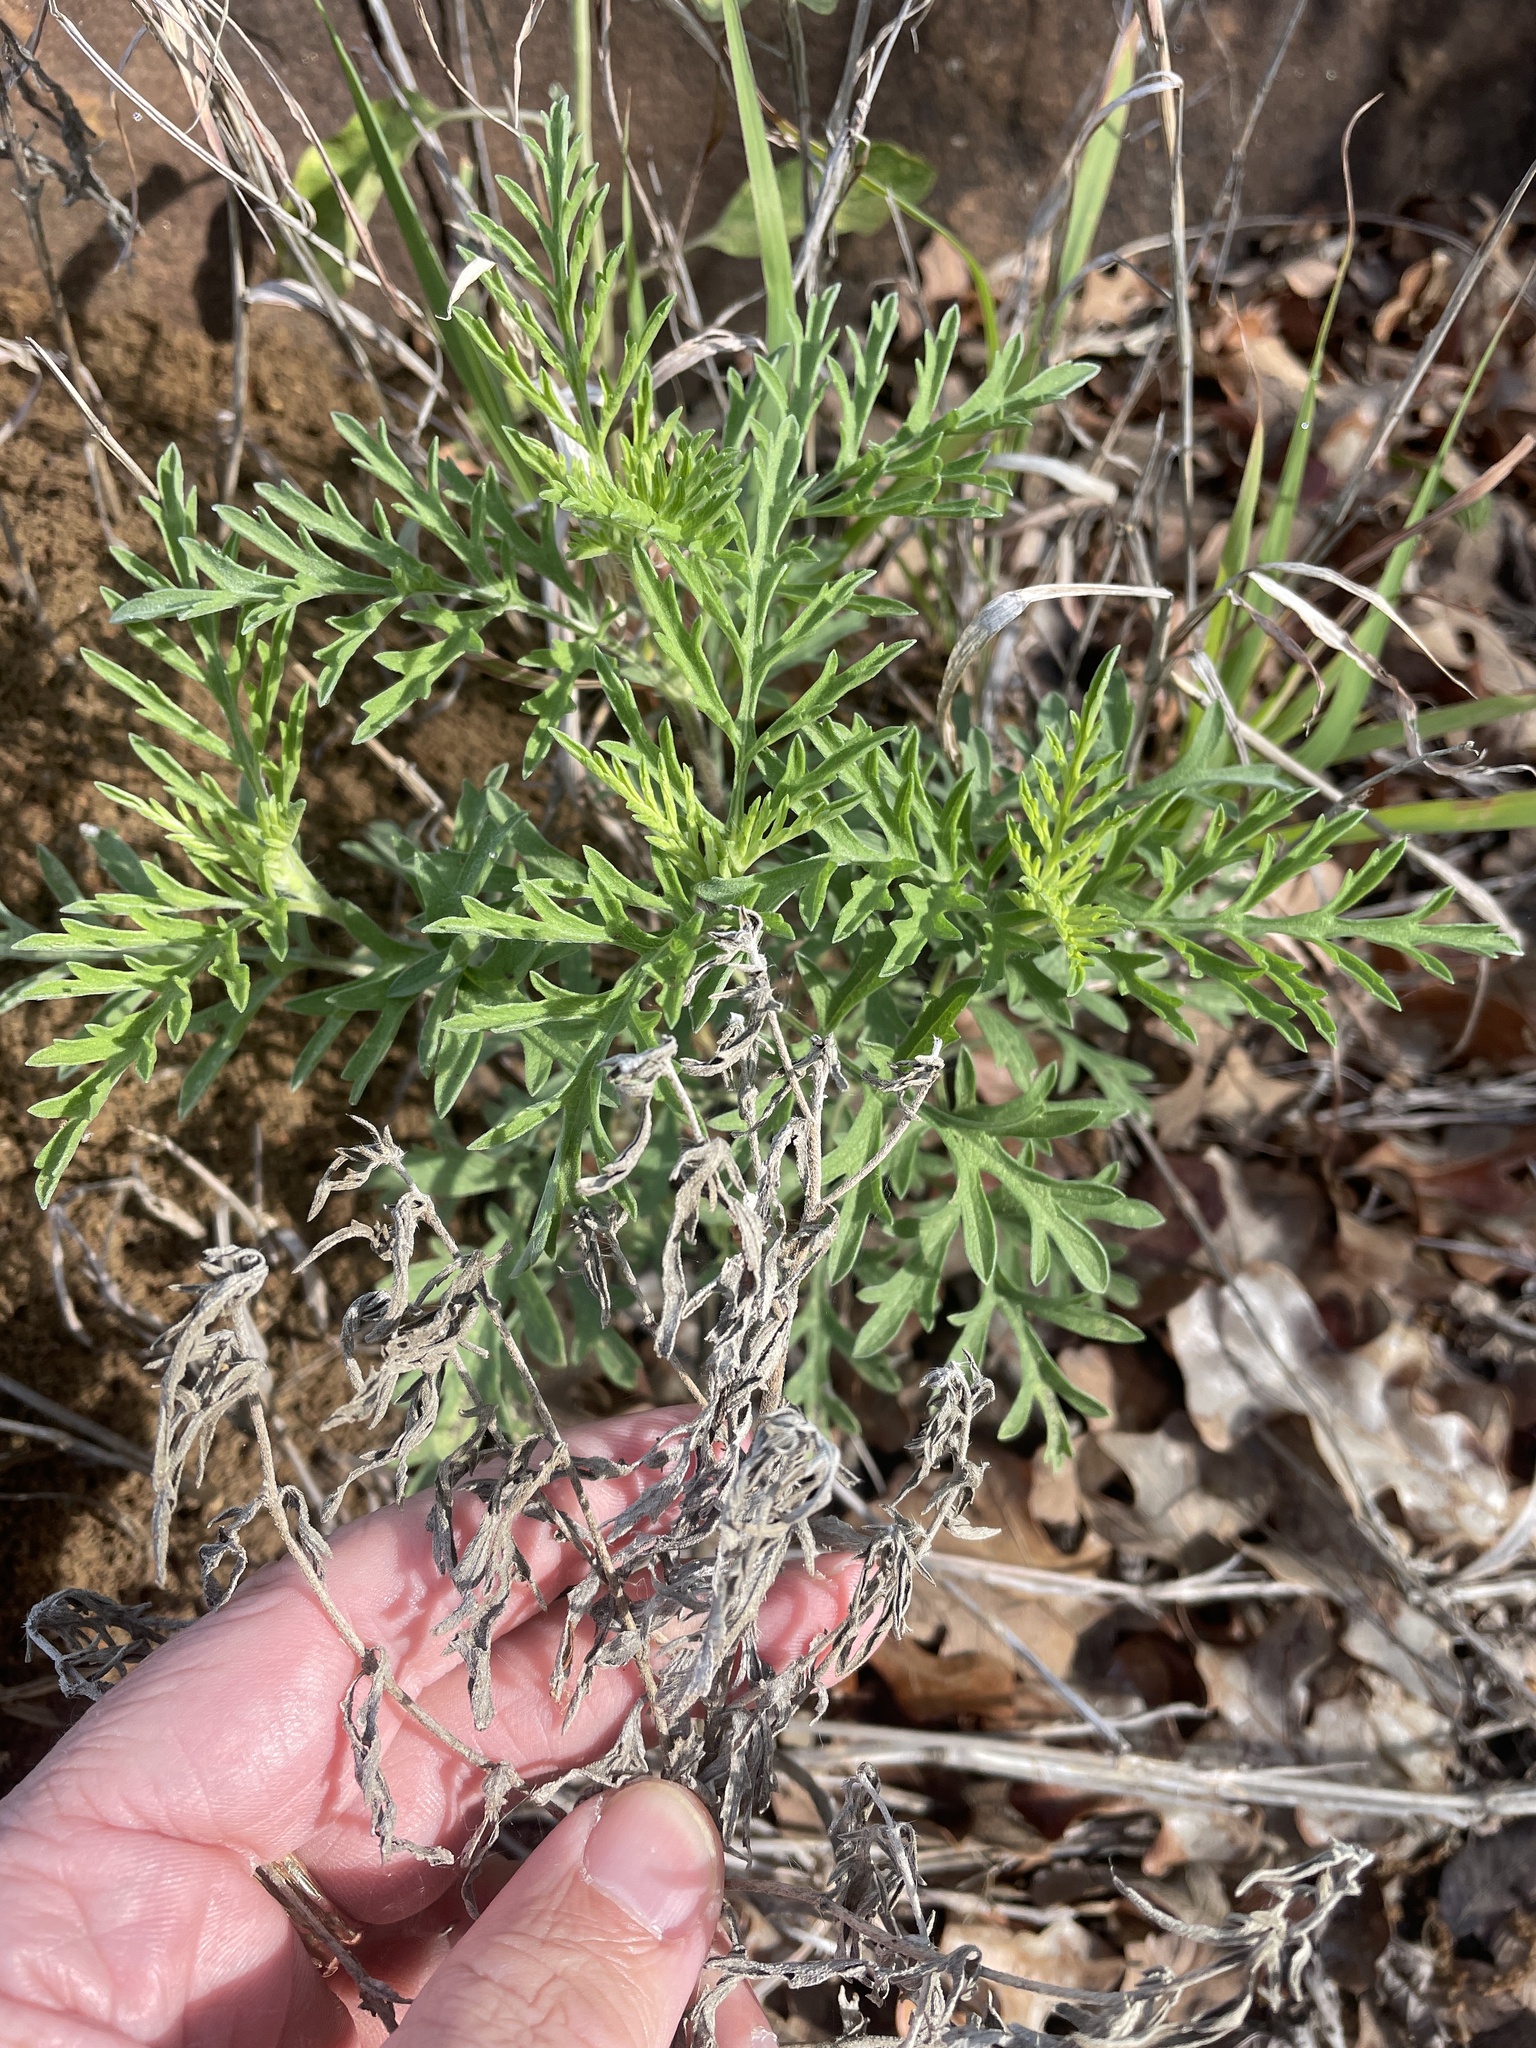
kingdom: Plantae
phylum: Tracheophyta
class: Magnoliopsida
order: Asterales
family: Asteraceae
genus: Ambrosia
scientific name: Ambrosia psilostachya
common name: Perennial ragweed
